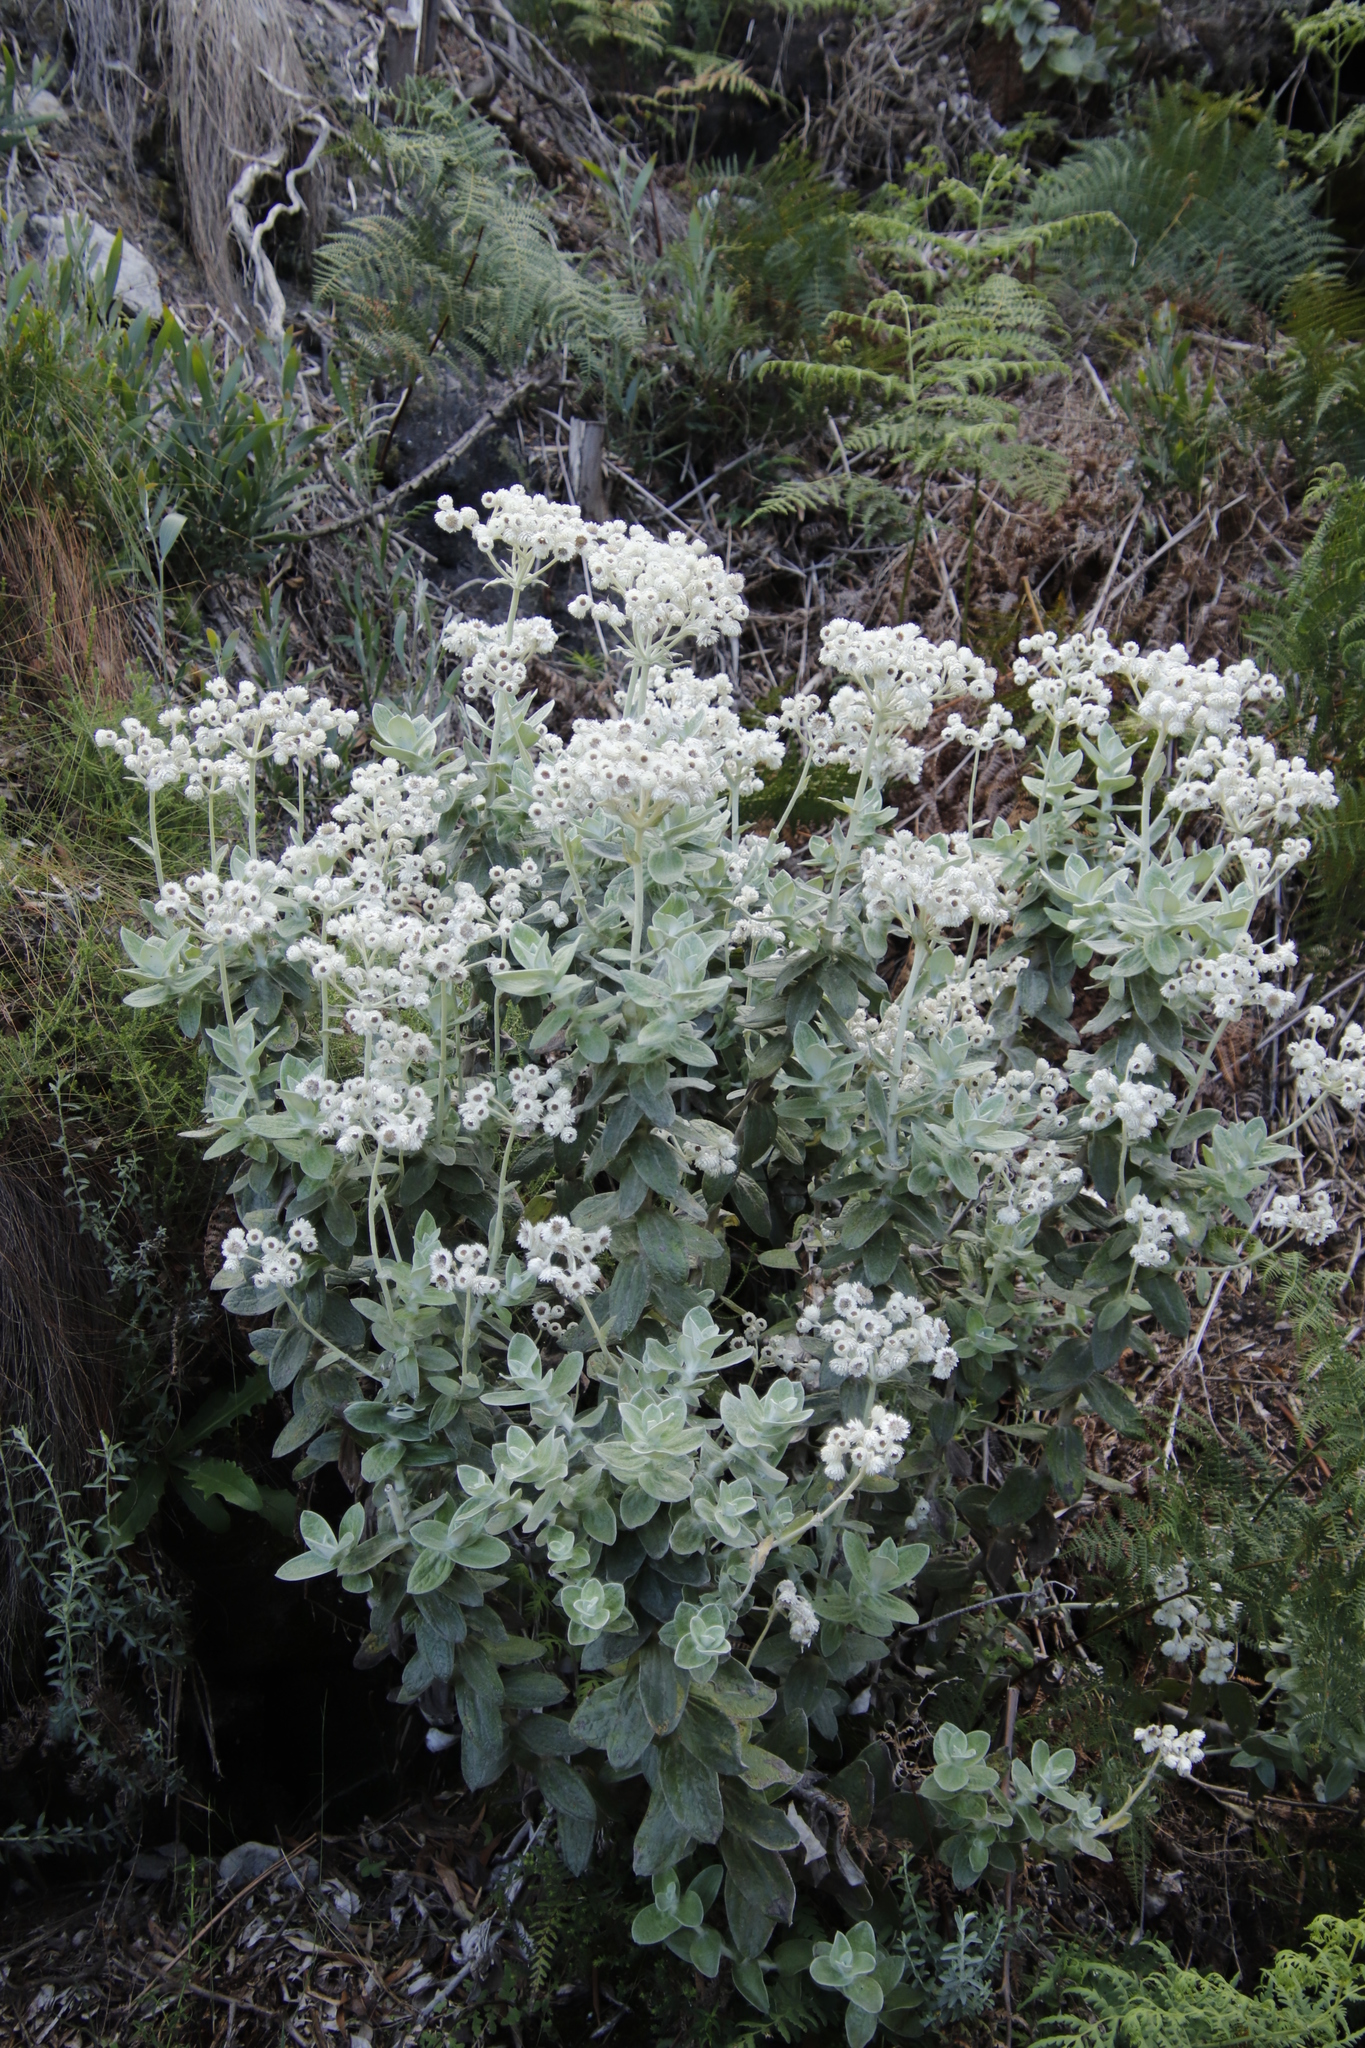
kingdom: Plantae
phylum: Tracheophyta
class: Magnoliopsida
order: Asterales
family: Asteraceae
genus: Helichrysum
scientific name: Helichrysum fruticans
